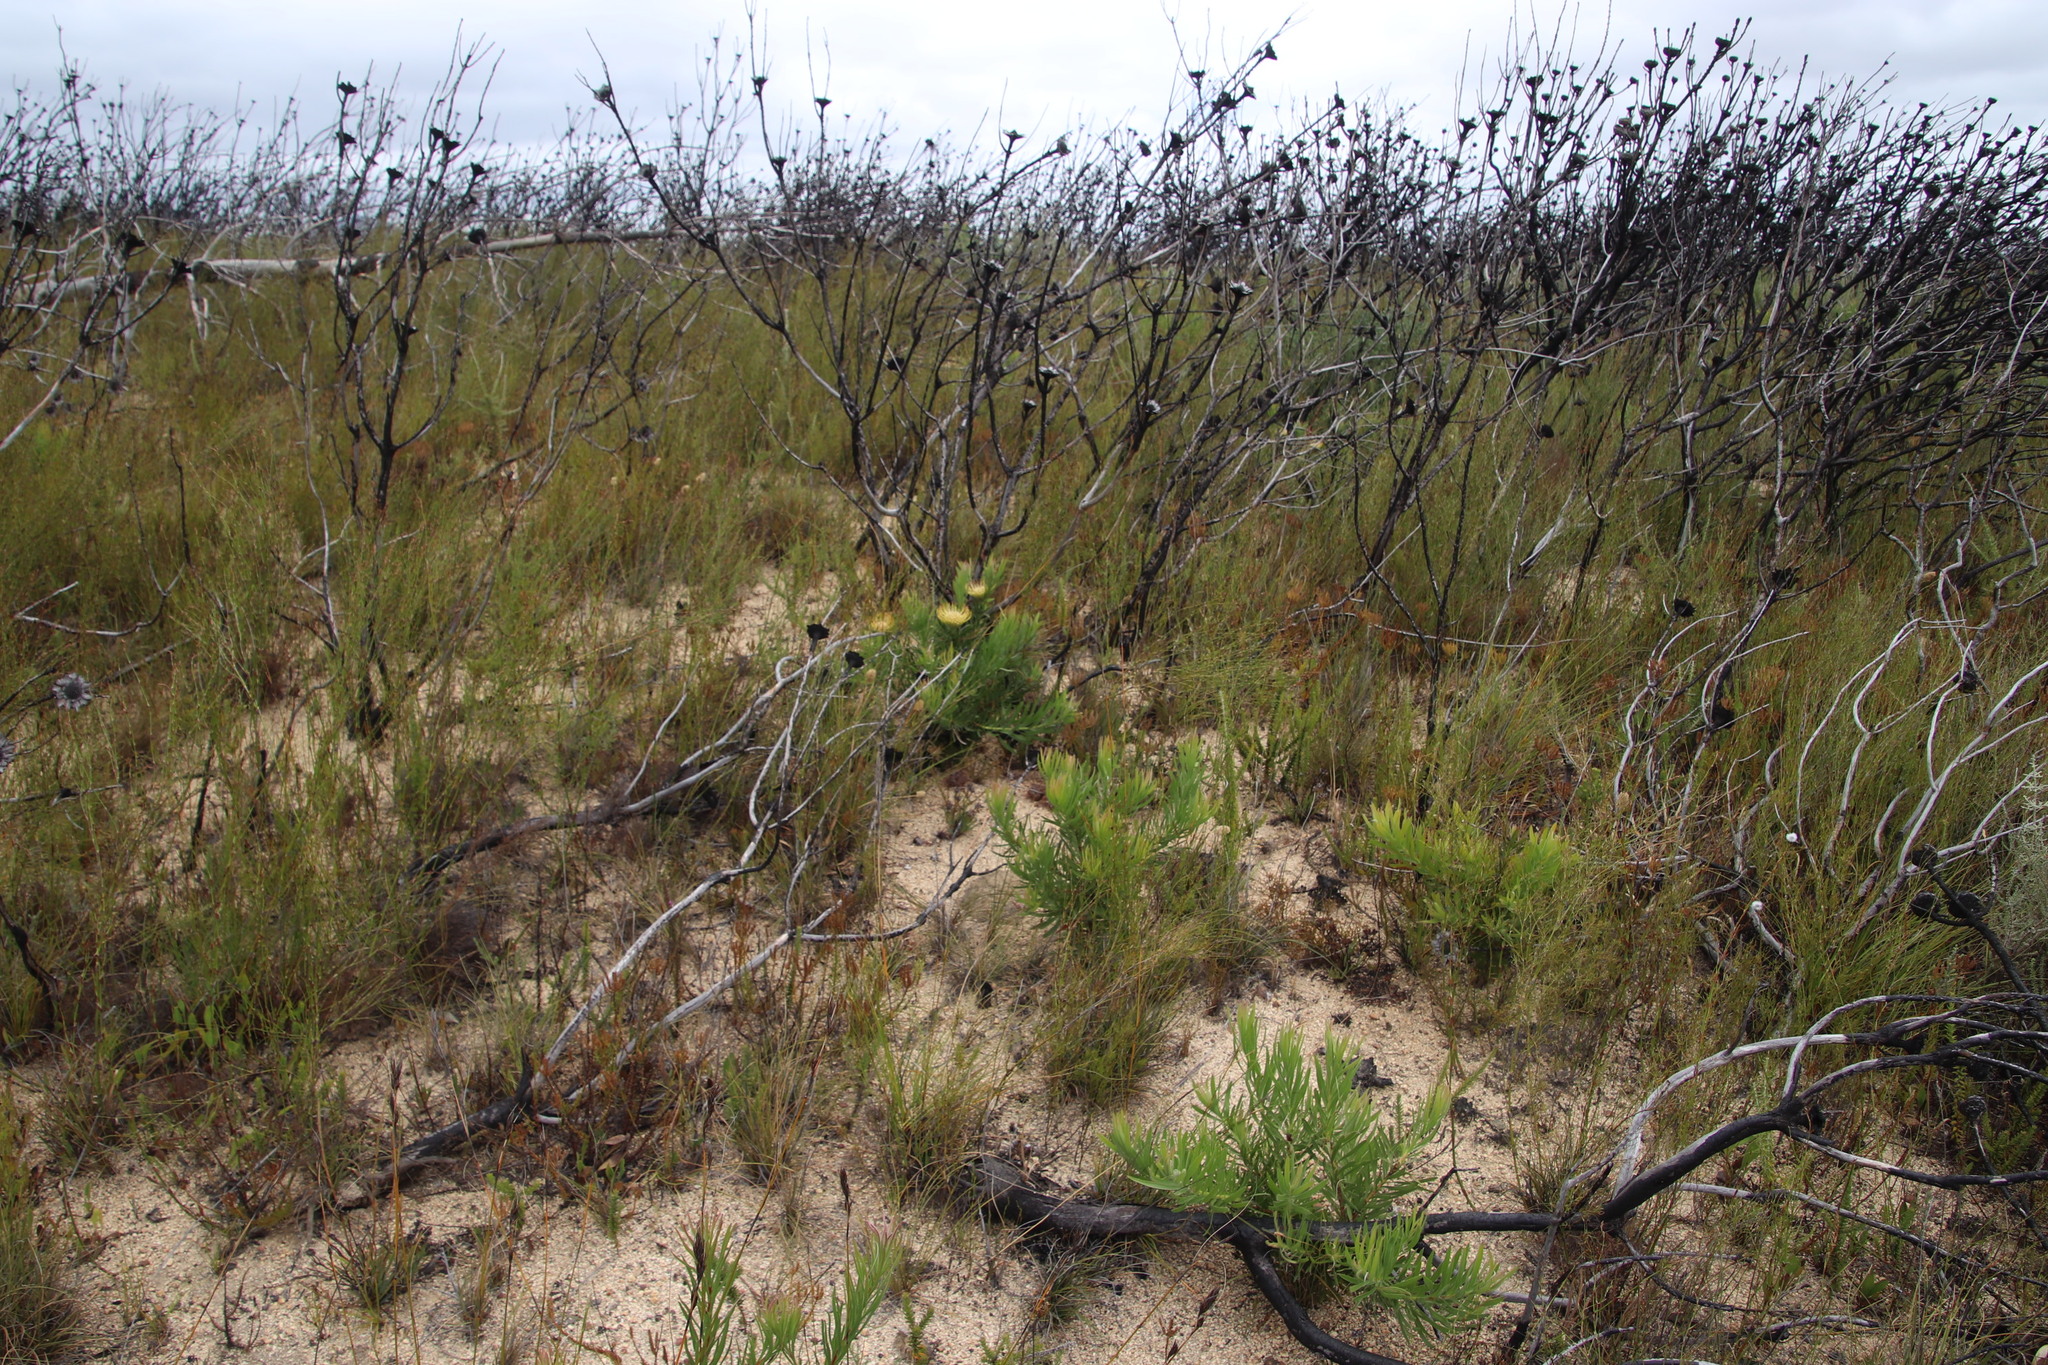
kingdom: Plantae
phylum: Tracheophyta
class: Magnoliopsida
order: Proteales
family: Proteaceae
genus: Leucospermum
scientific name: Leucospermum lineare
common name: Needle-leaf pincushion
